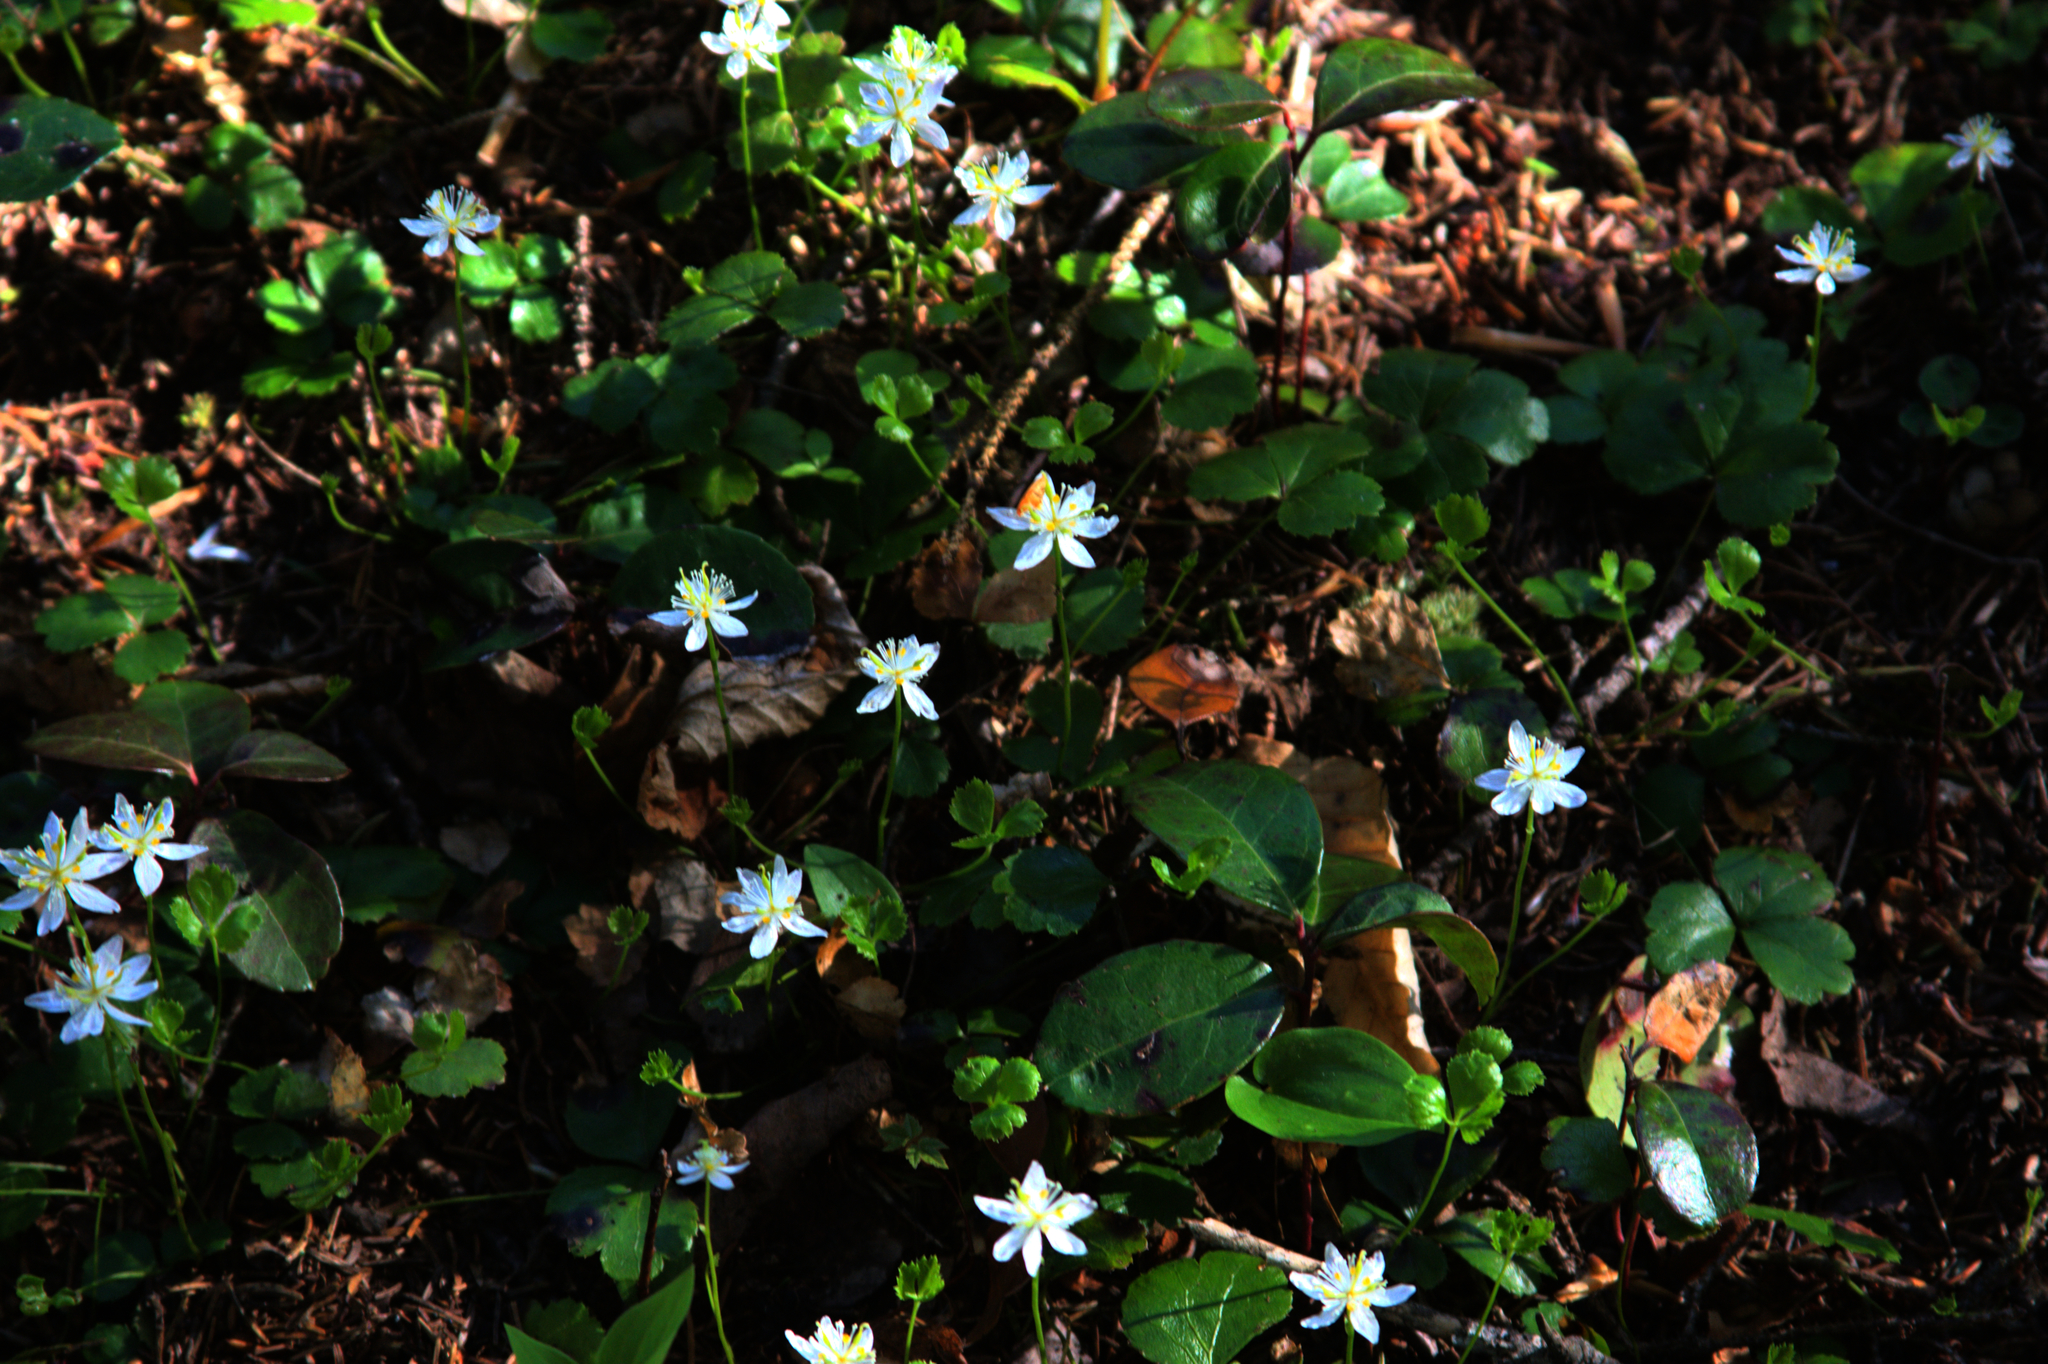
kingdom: Plantae
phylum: Tracheophyta
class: Magnoliopsida
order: Ranunculales
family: Ranunculaceae
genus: Coptis
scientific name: Coptis trifolia
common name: Canker-root
